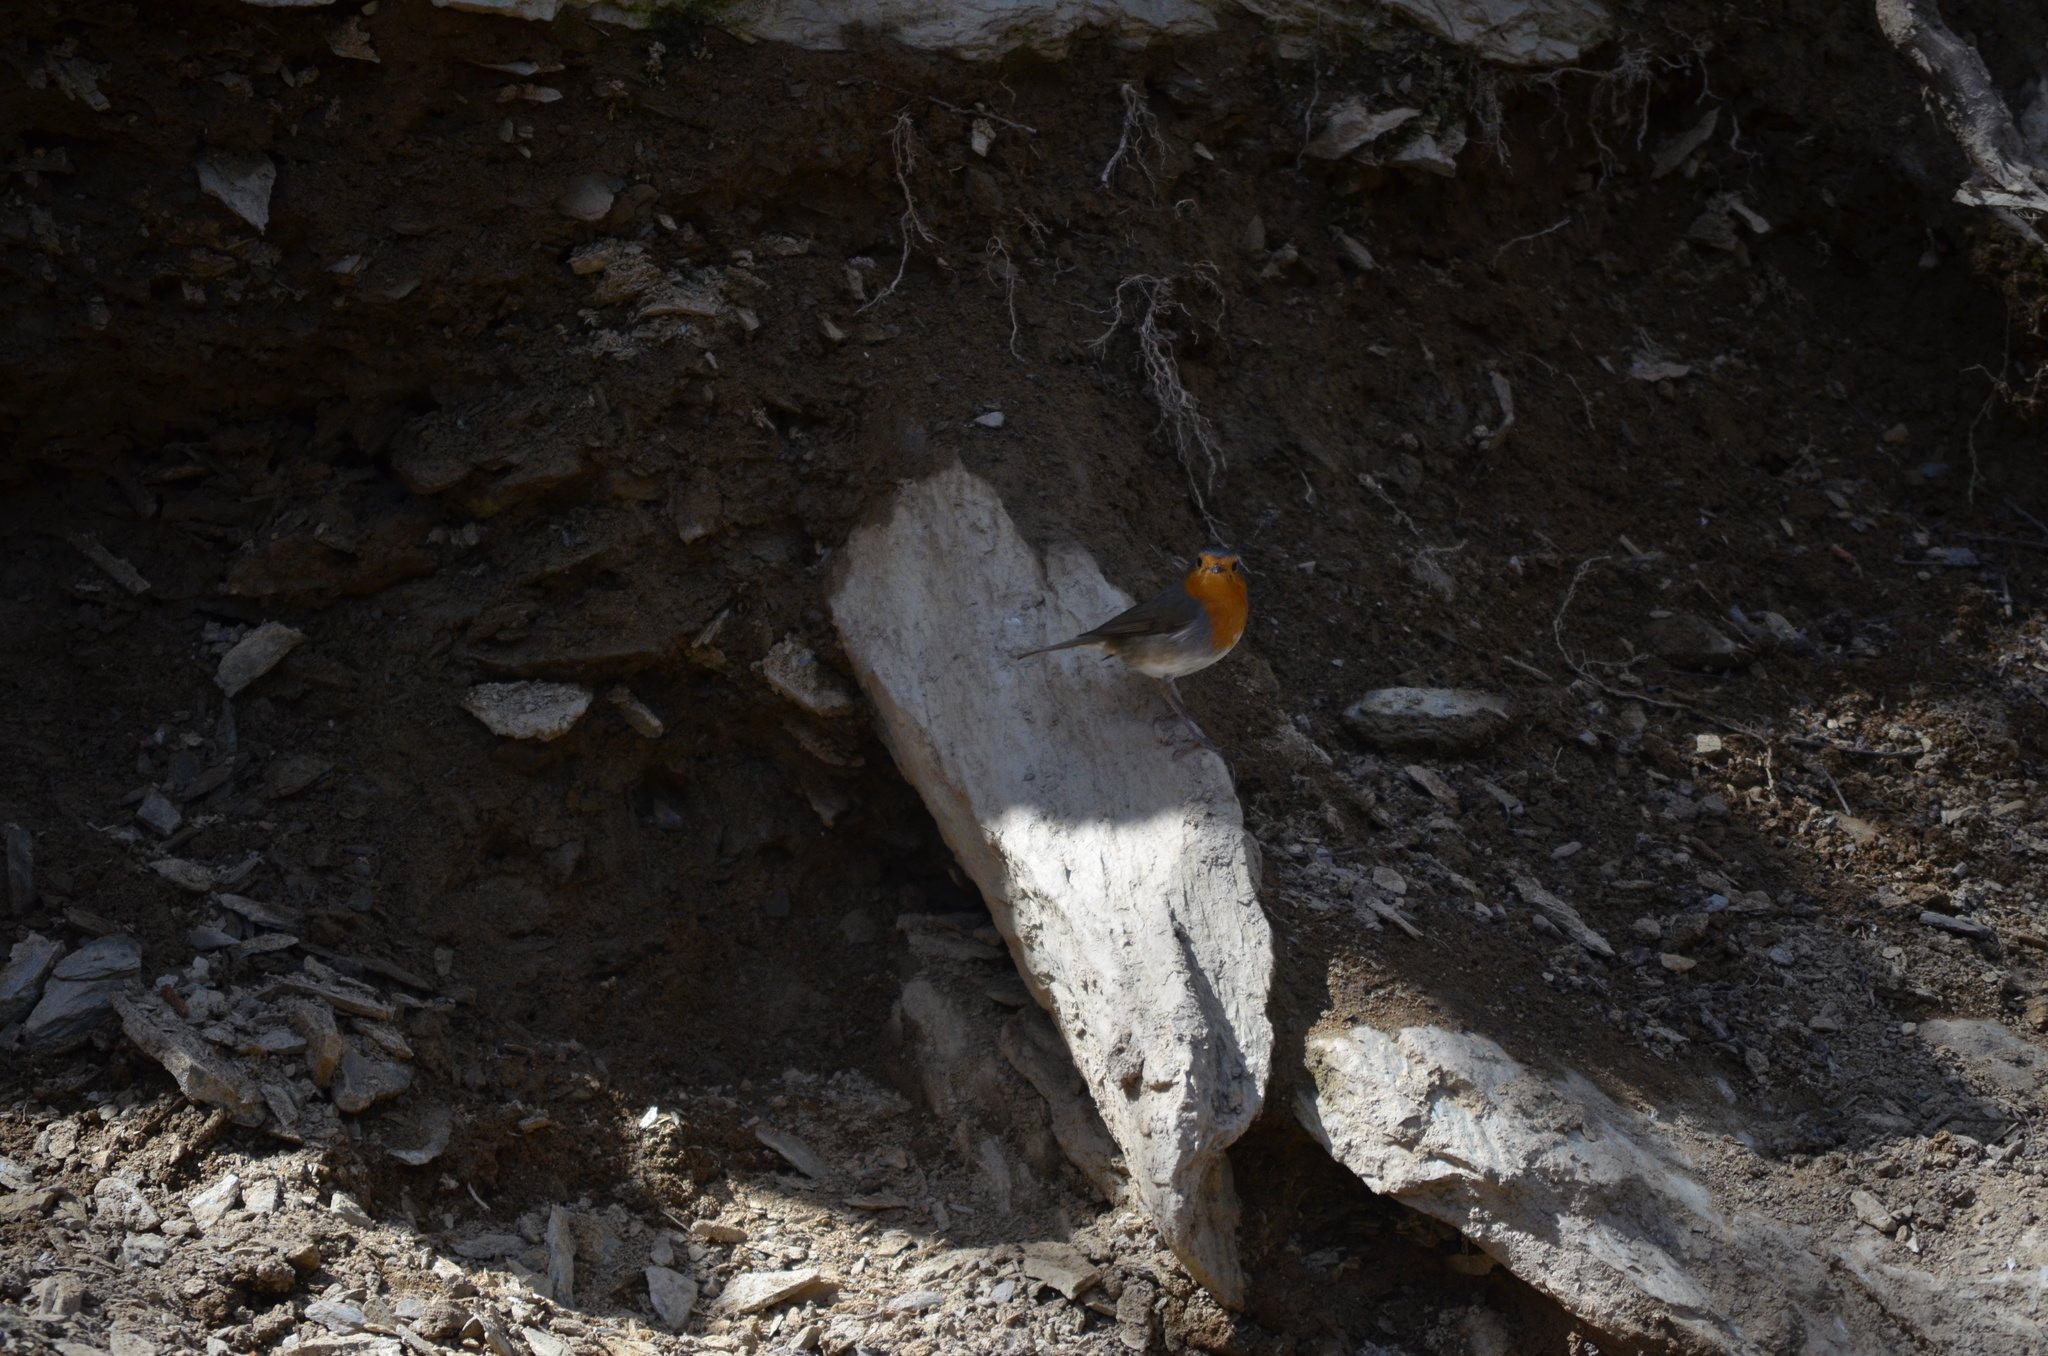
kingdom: Animalia
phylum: Chordata
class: Aves
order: Passeriformes
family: Muscicapidae
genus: Erithacus
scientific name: Erithacus rubecula
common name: European robin
